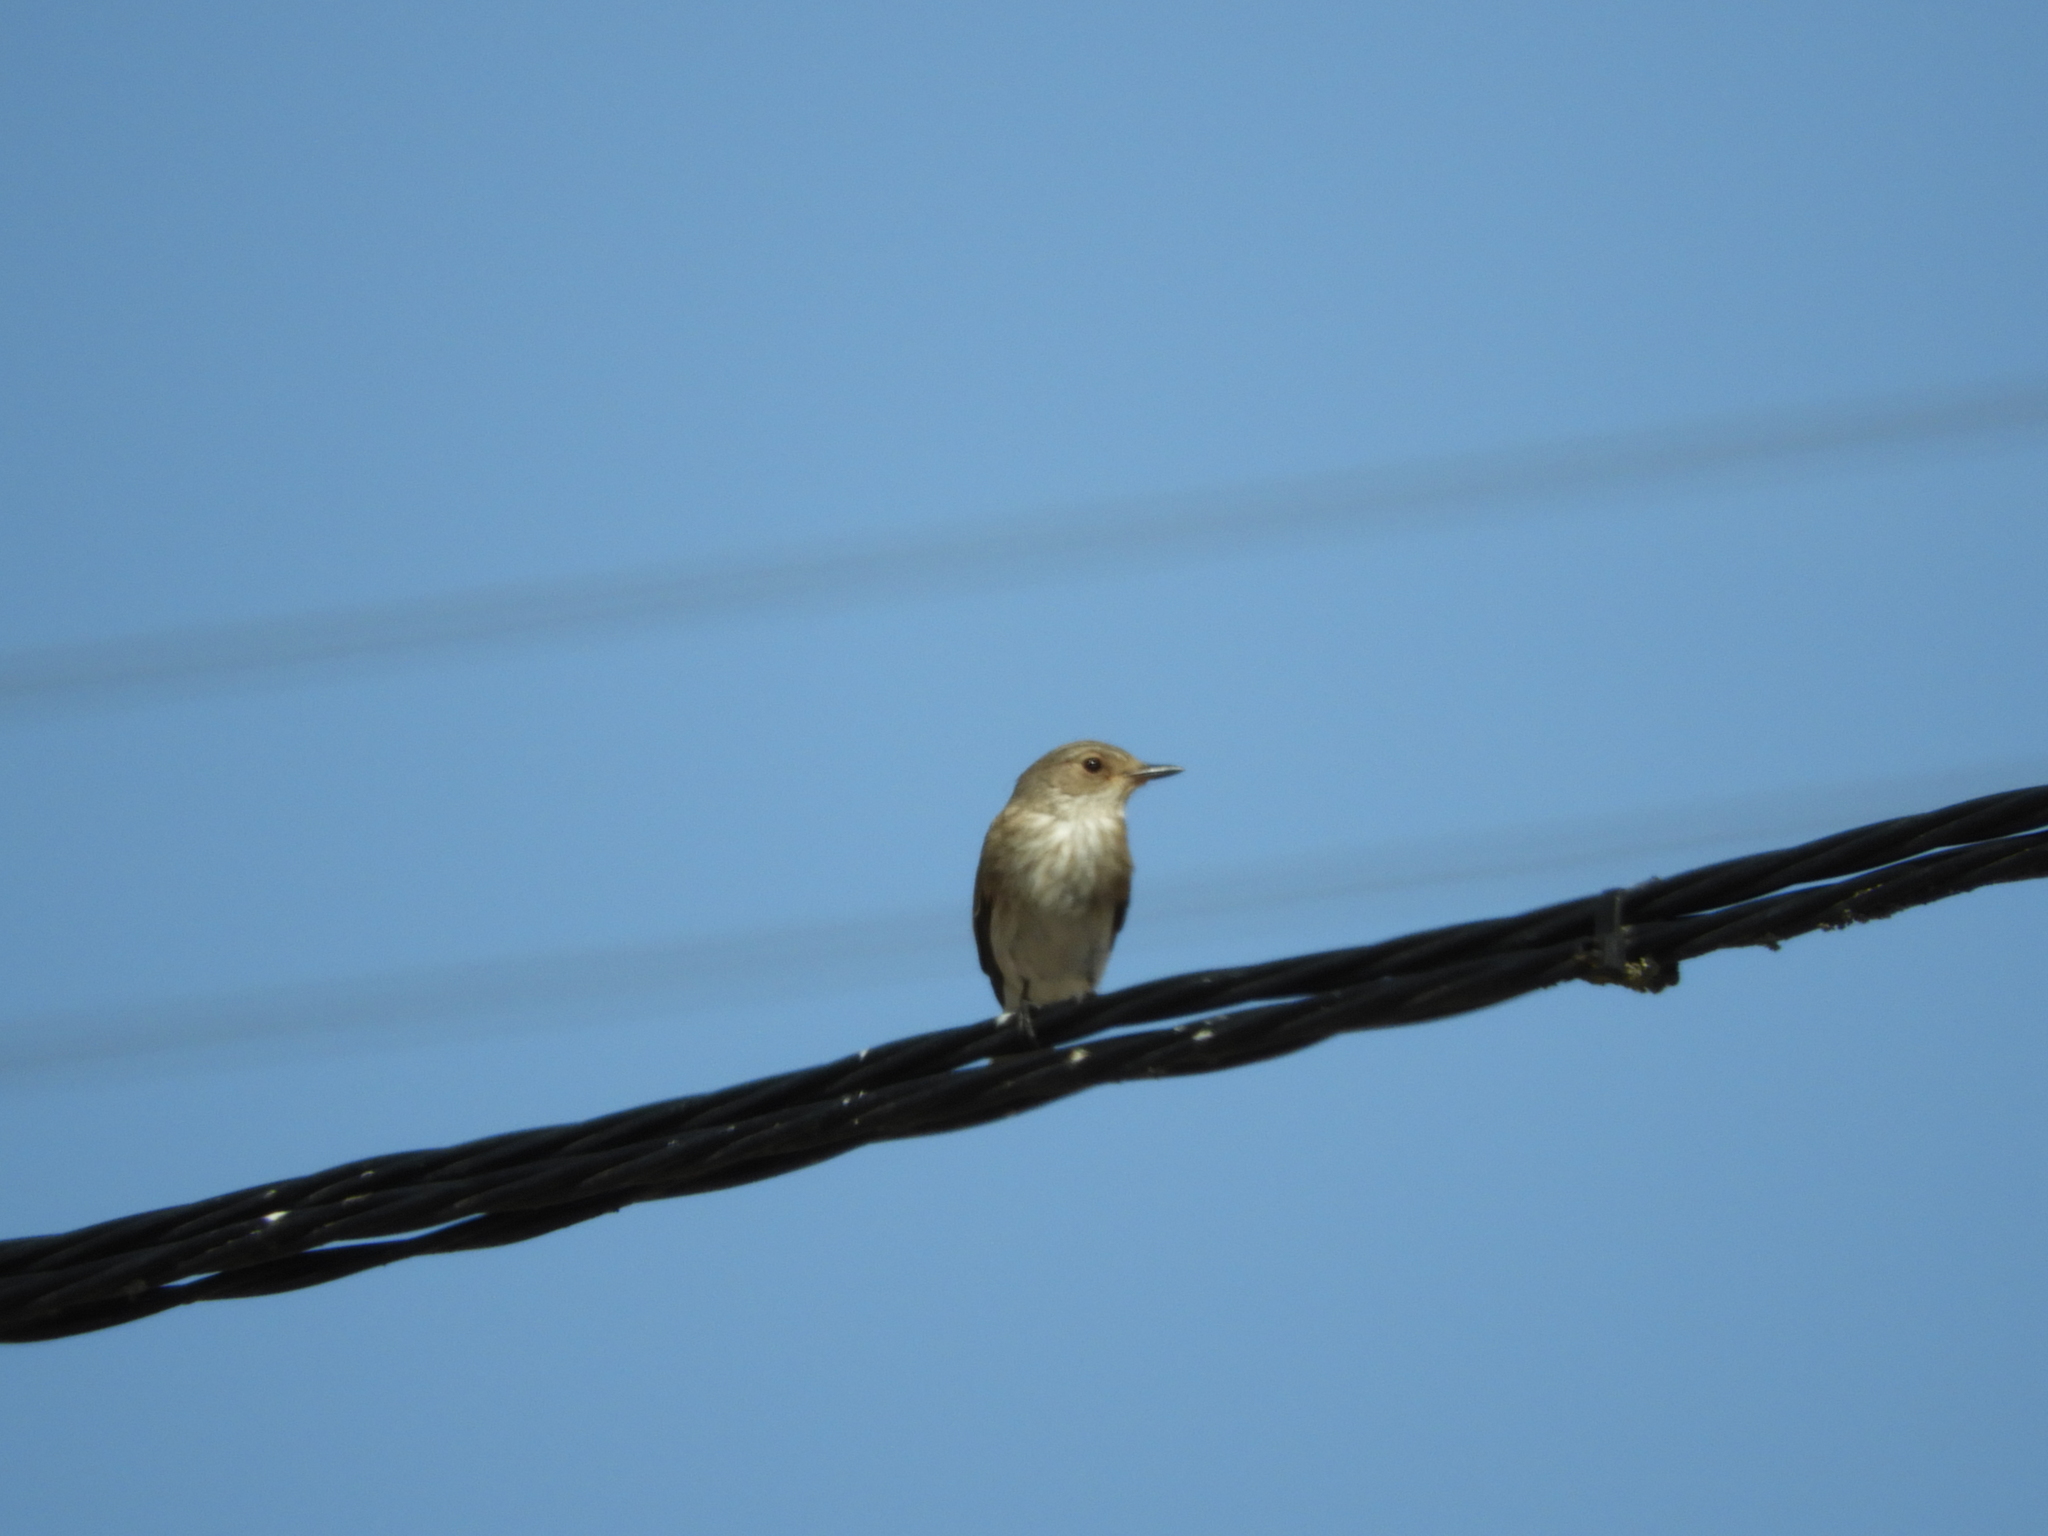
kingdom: Animalia
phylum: Chordata
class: Aves
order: Passeriformes
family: Muscicapidae
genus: Muscicapa
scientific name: Muscicapa striata
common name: Spotted flycatcher
